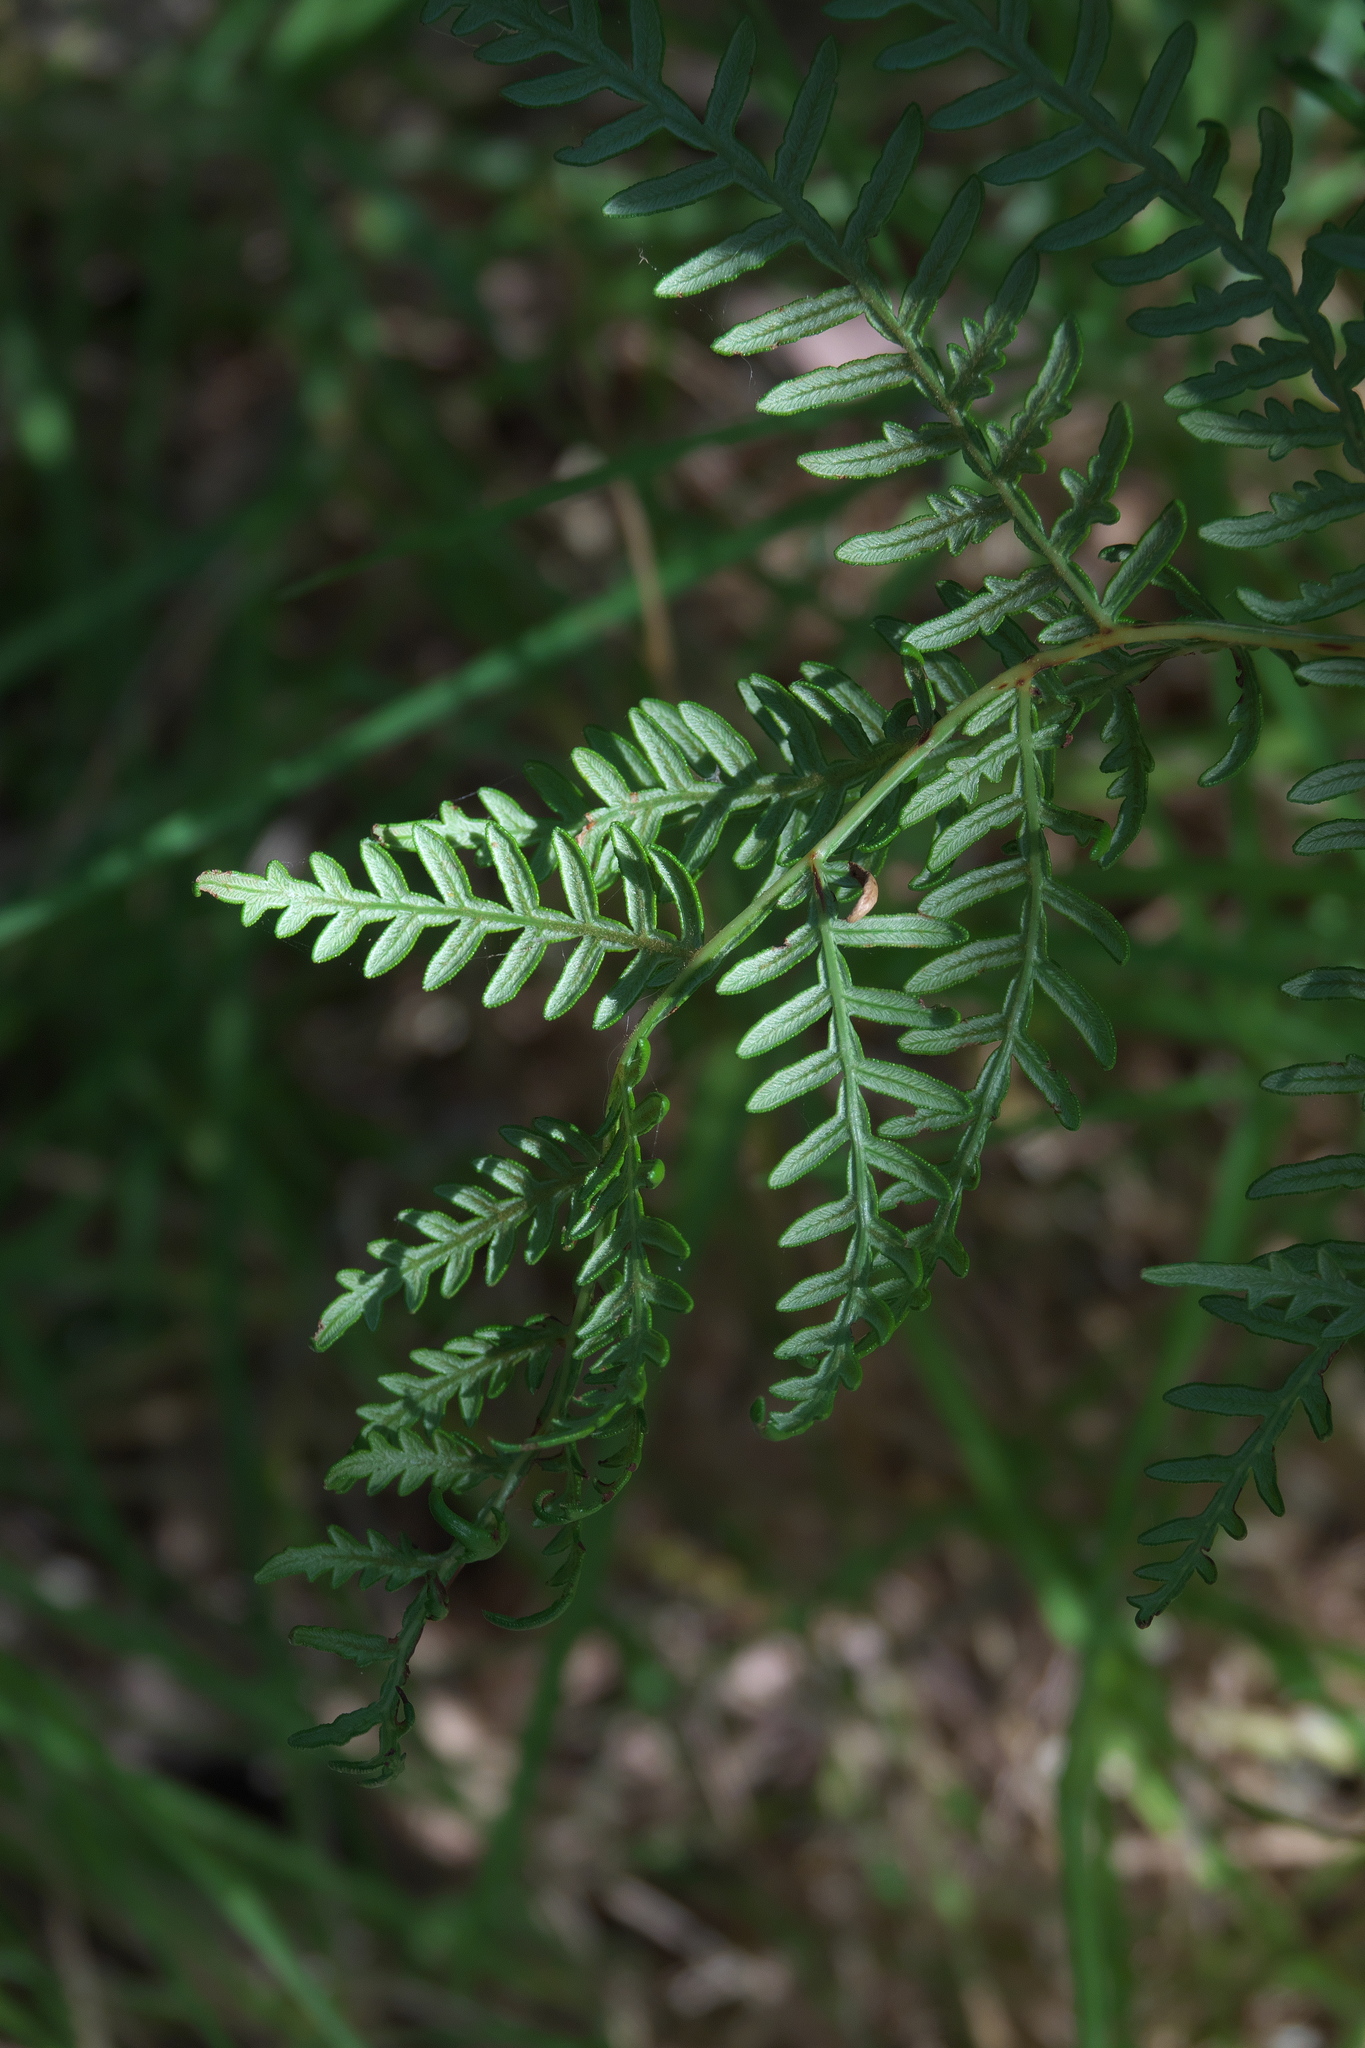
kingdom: Plantae
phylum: Tracheophyta
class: Polypodiopsida
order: Polypodiales
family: Dennstaedtiaceae
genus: Pteridium
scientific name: Pteridium esculentum
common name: Bracken fern
